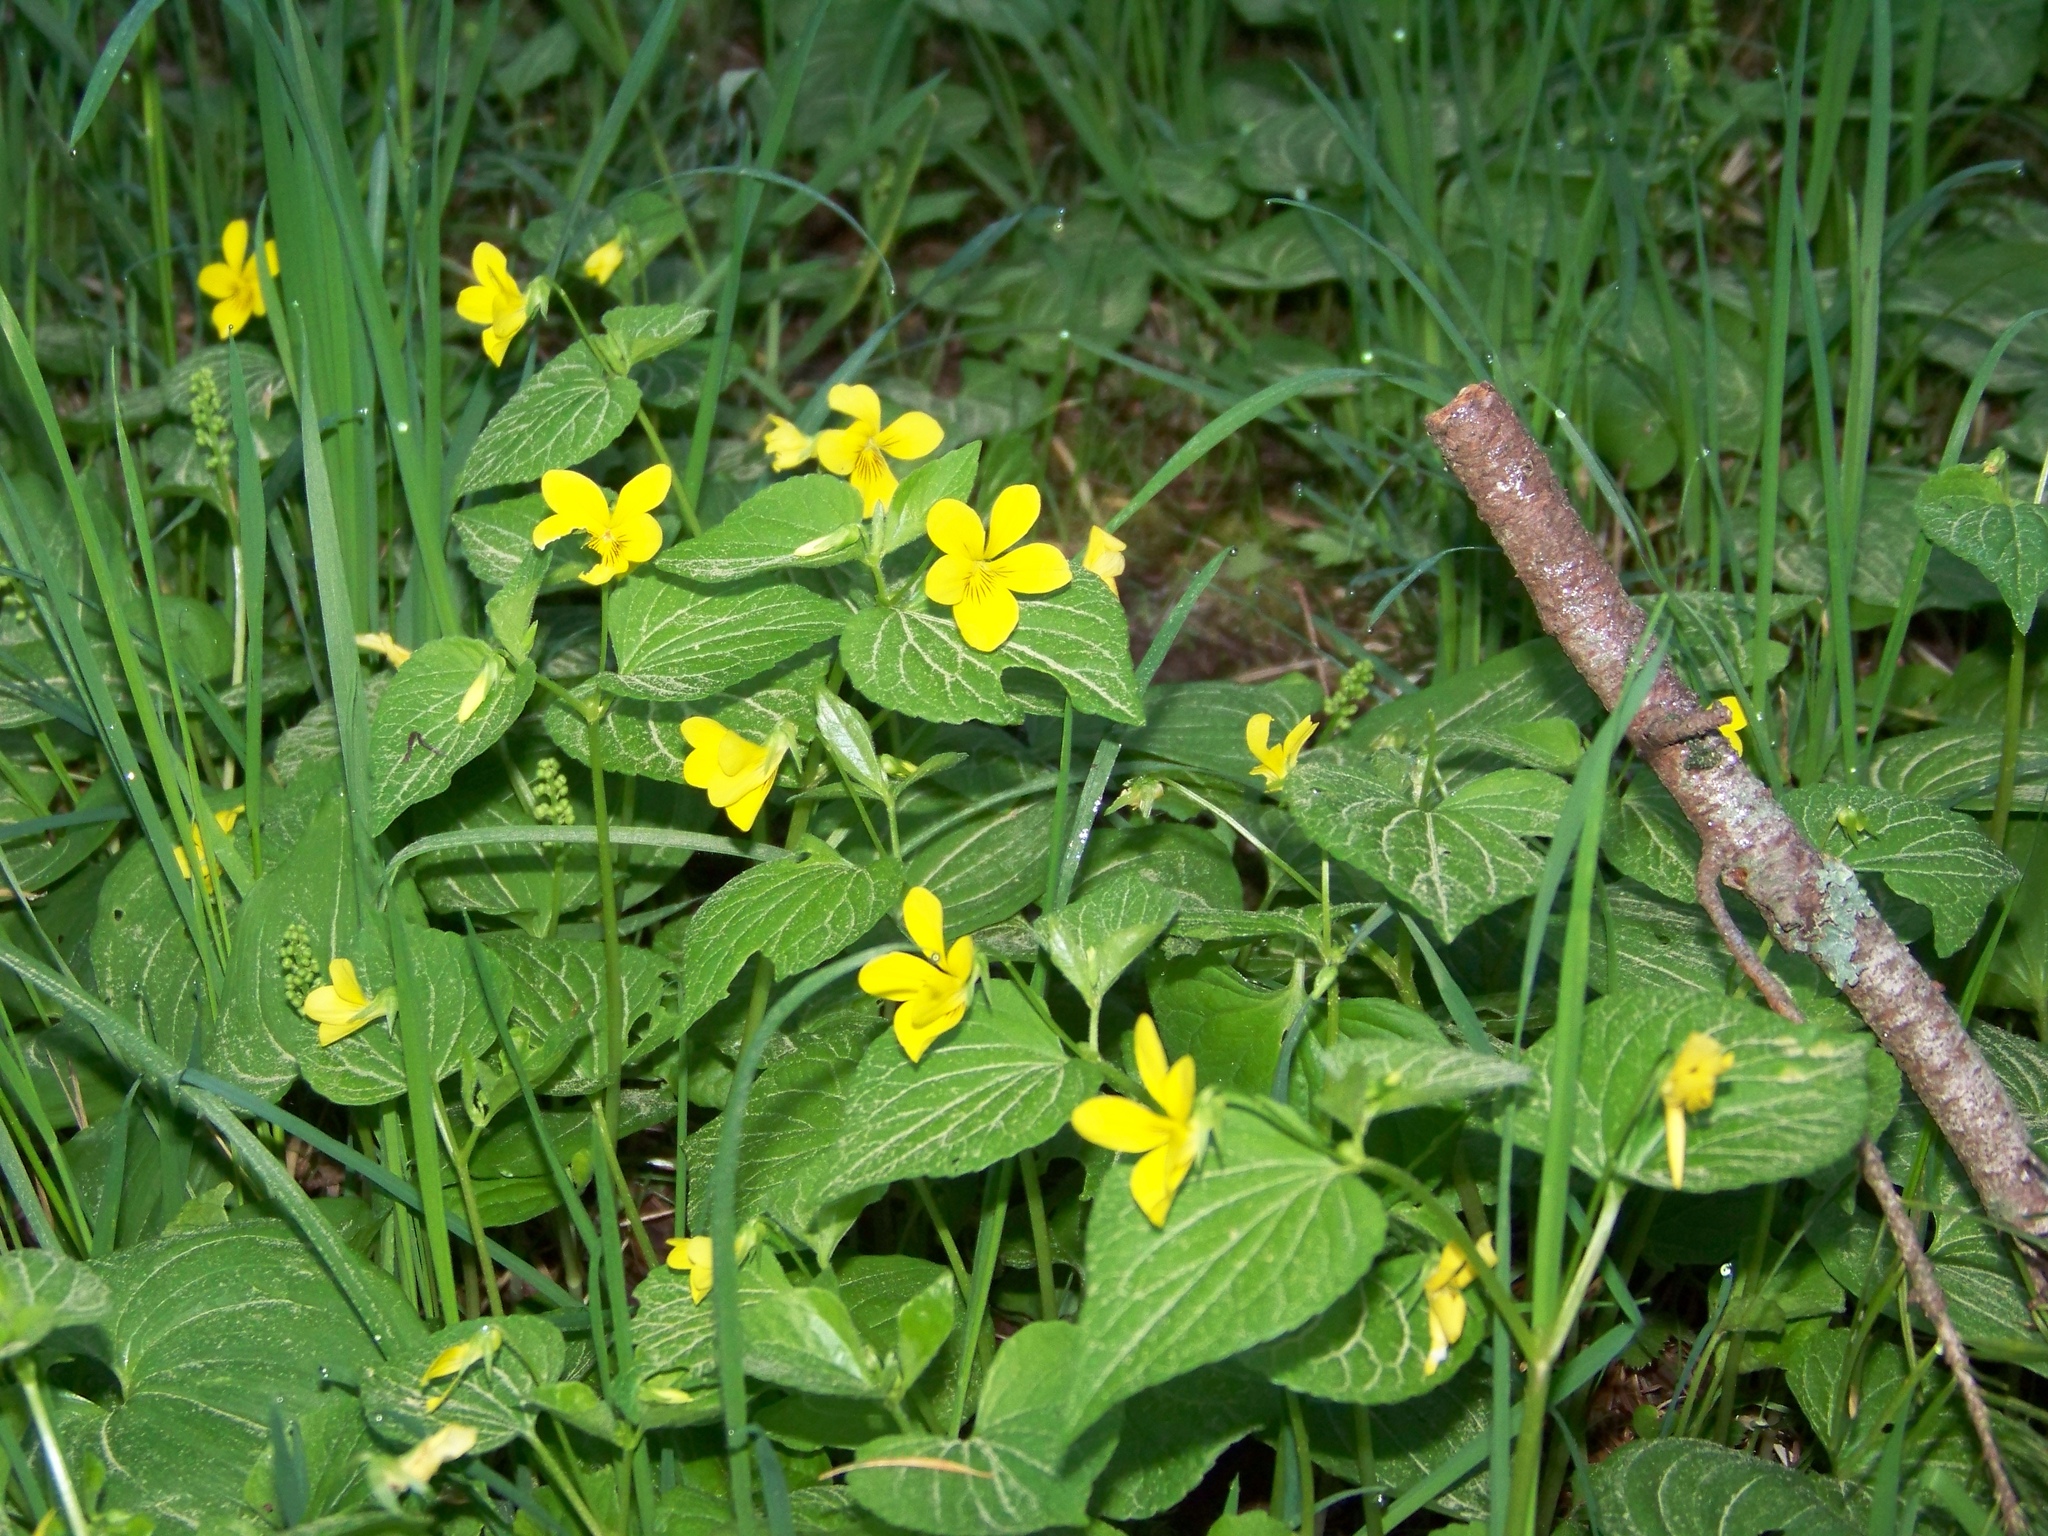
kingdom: Plantae
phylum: Tracheophyta
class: Magnoliopsida
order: Malpighiales
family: Violaceae
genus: Viola
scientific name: Viola glabella
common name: Stream violet
